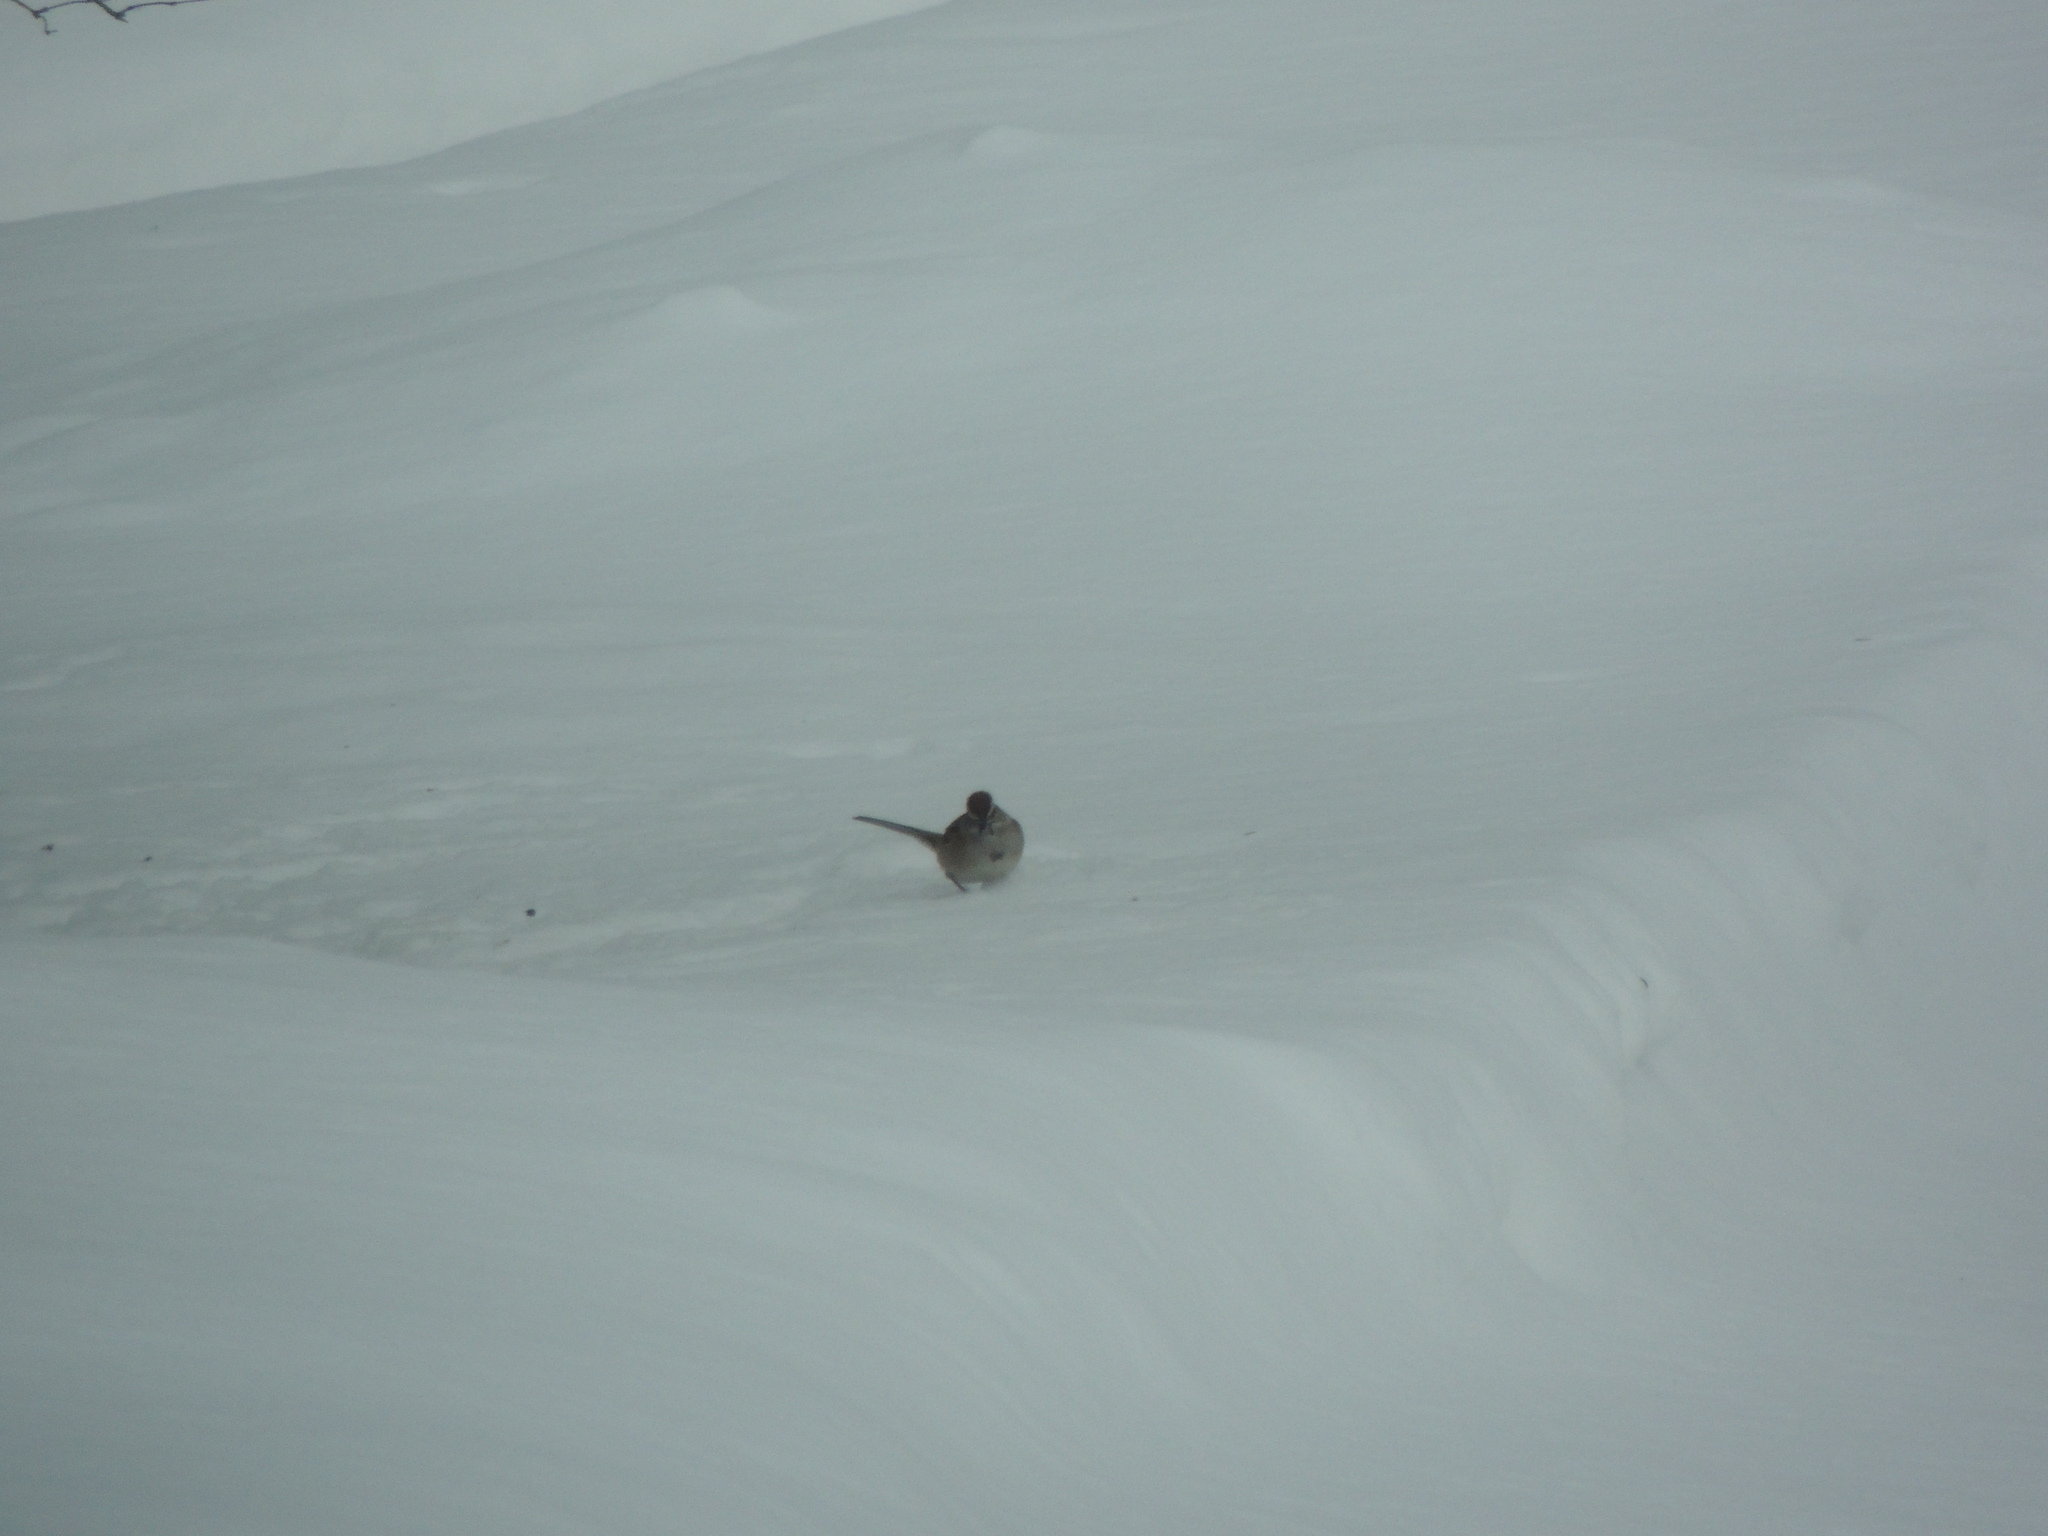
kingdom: Animalia
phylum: Chordata
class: Aves
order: Passeriformes
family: Passerellidae
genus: Spizelloides
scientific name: Spizelloides arborea
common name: American tree sparrow
